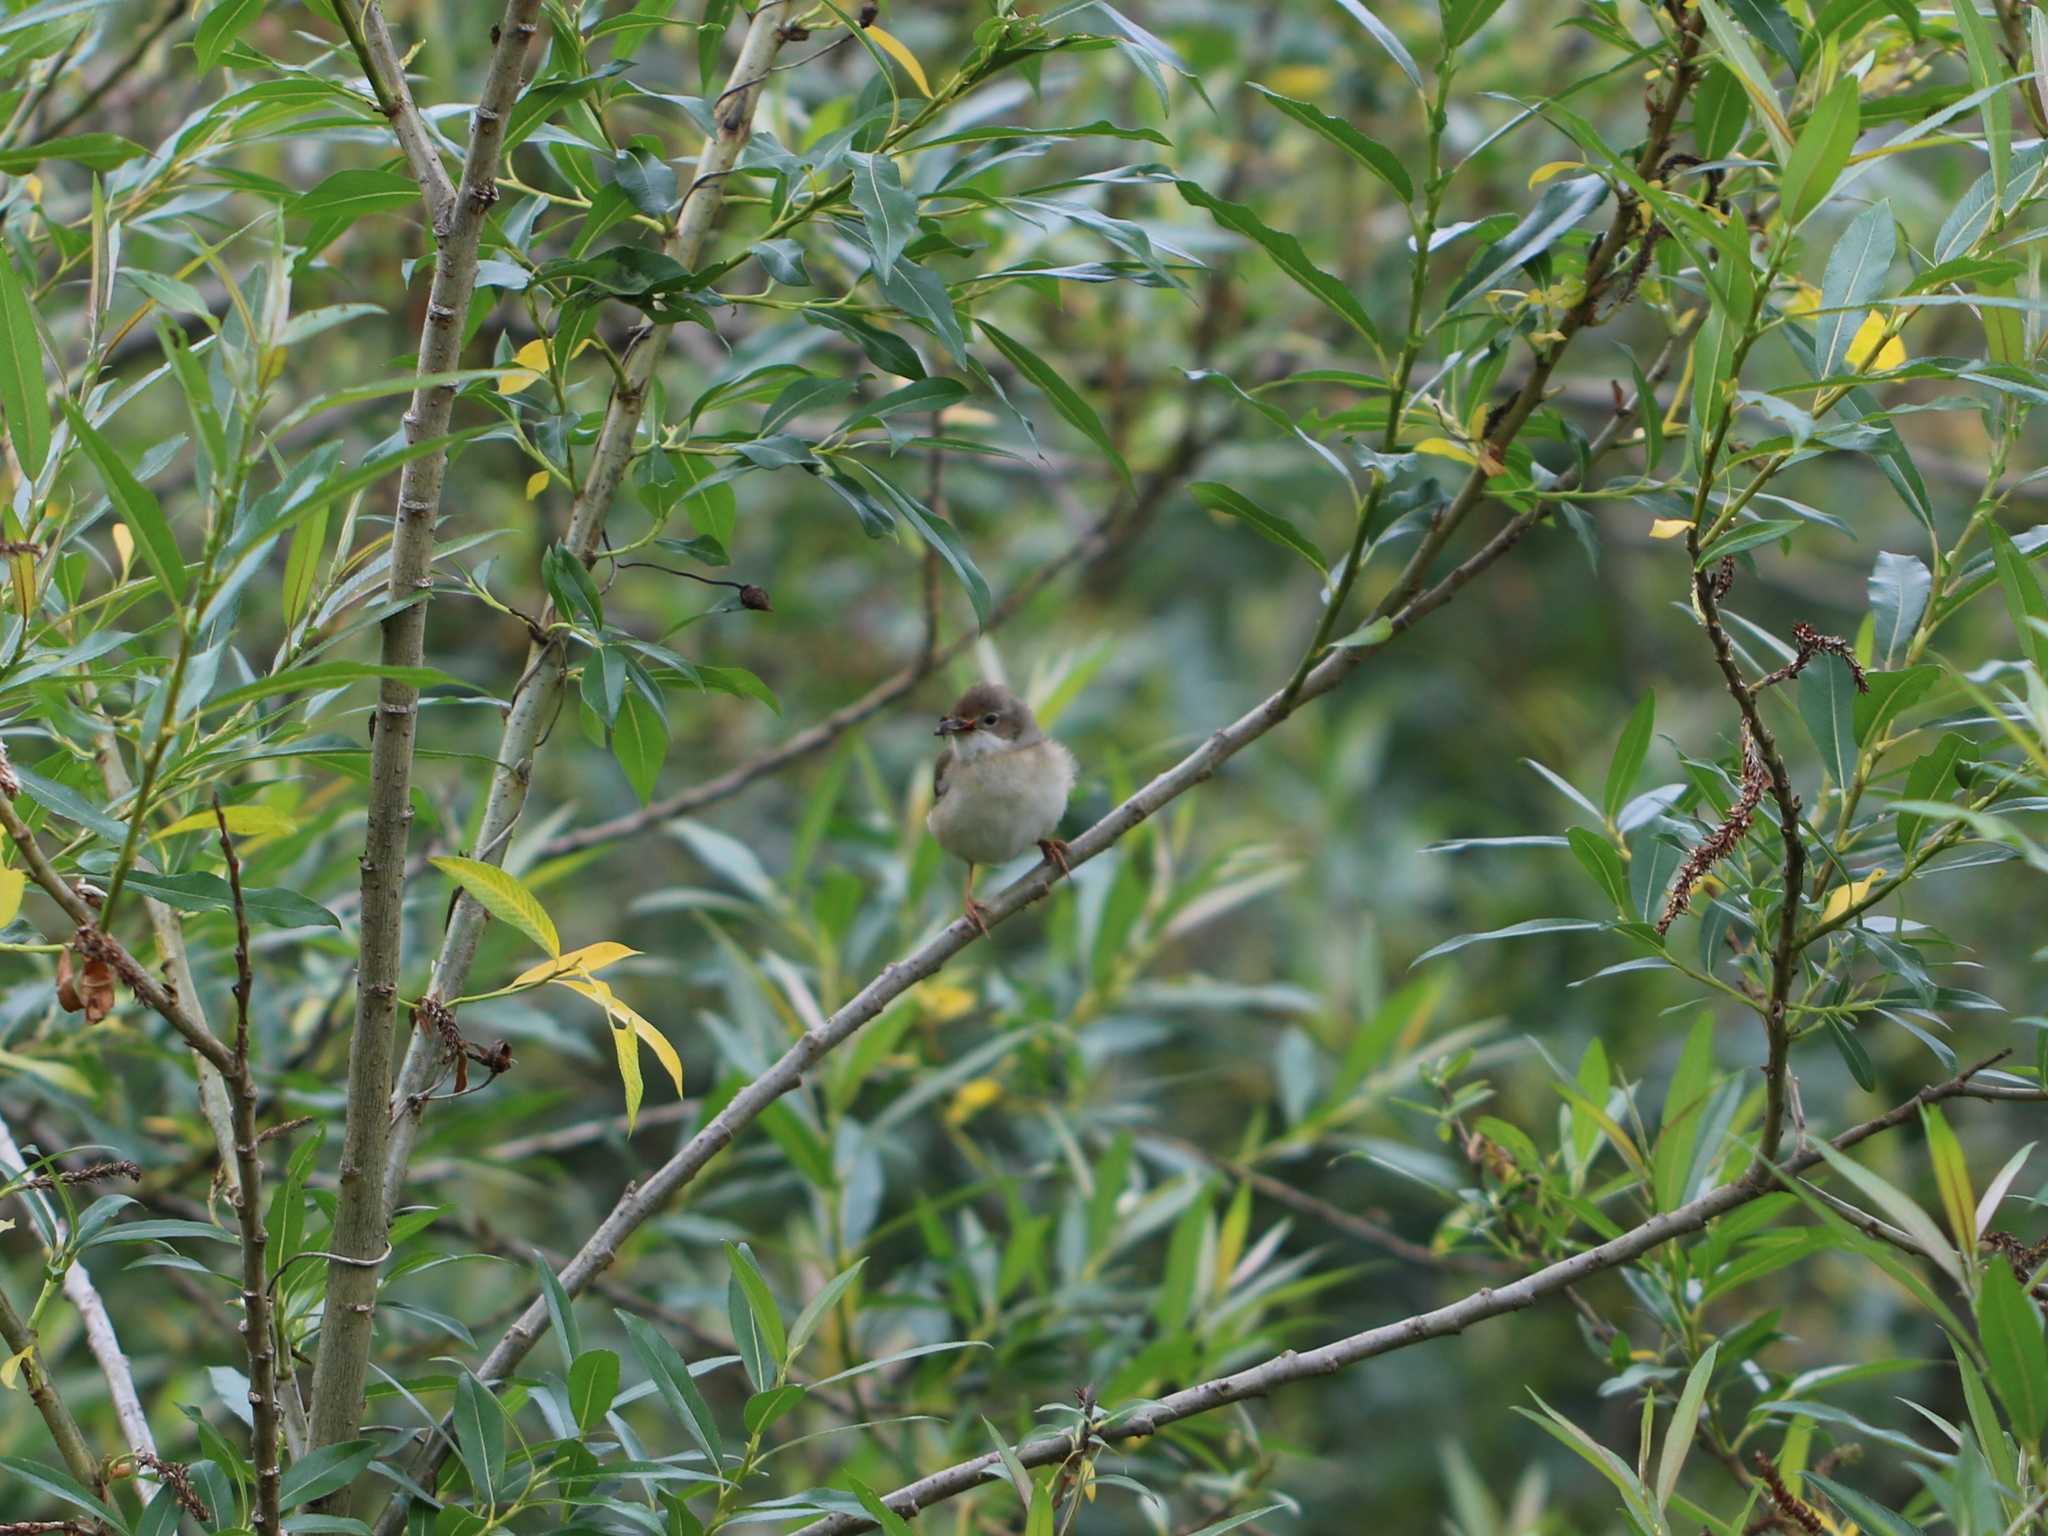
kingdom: Animalia
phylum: Chordata
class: Aves
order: Passeriformes
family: Sylviidae
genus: Sylvia
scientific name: Sylvia communis
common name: Common whitethroat
